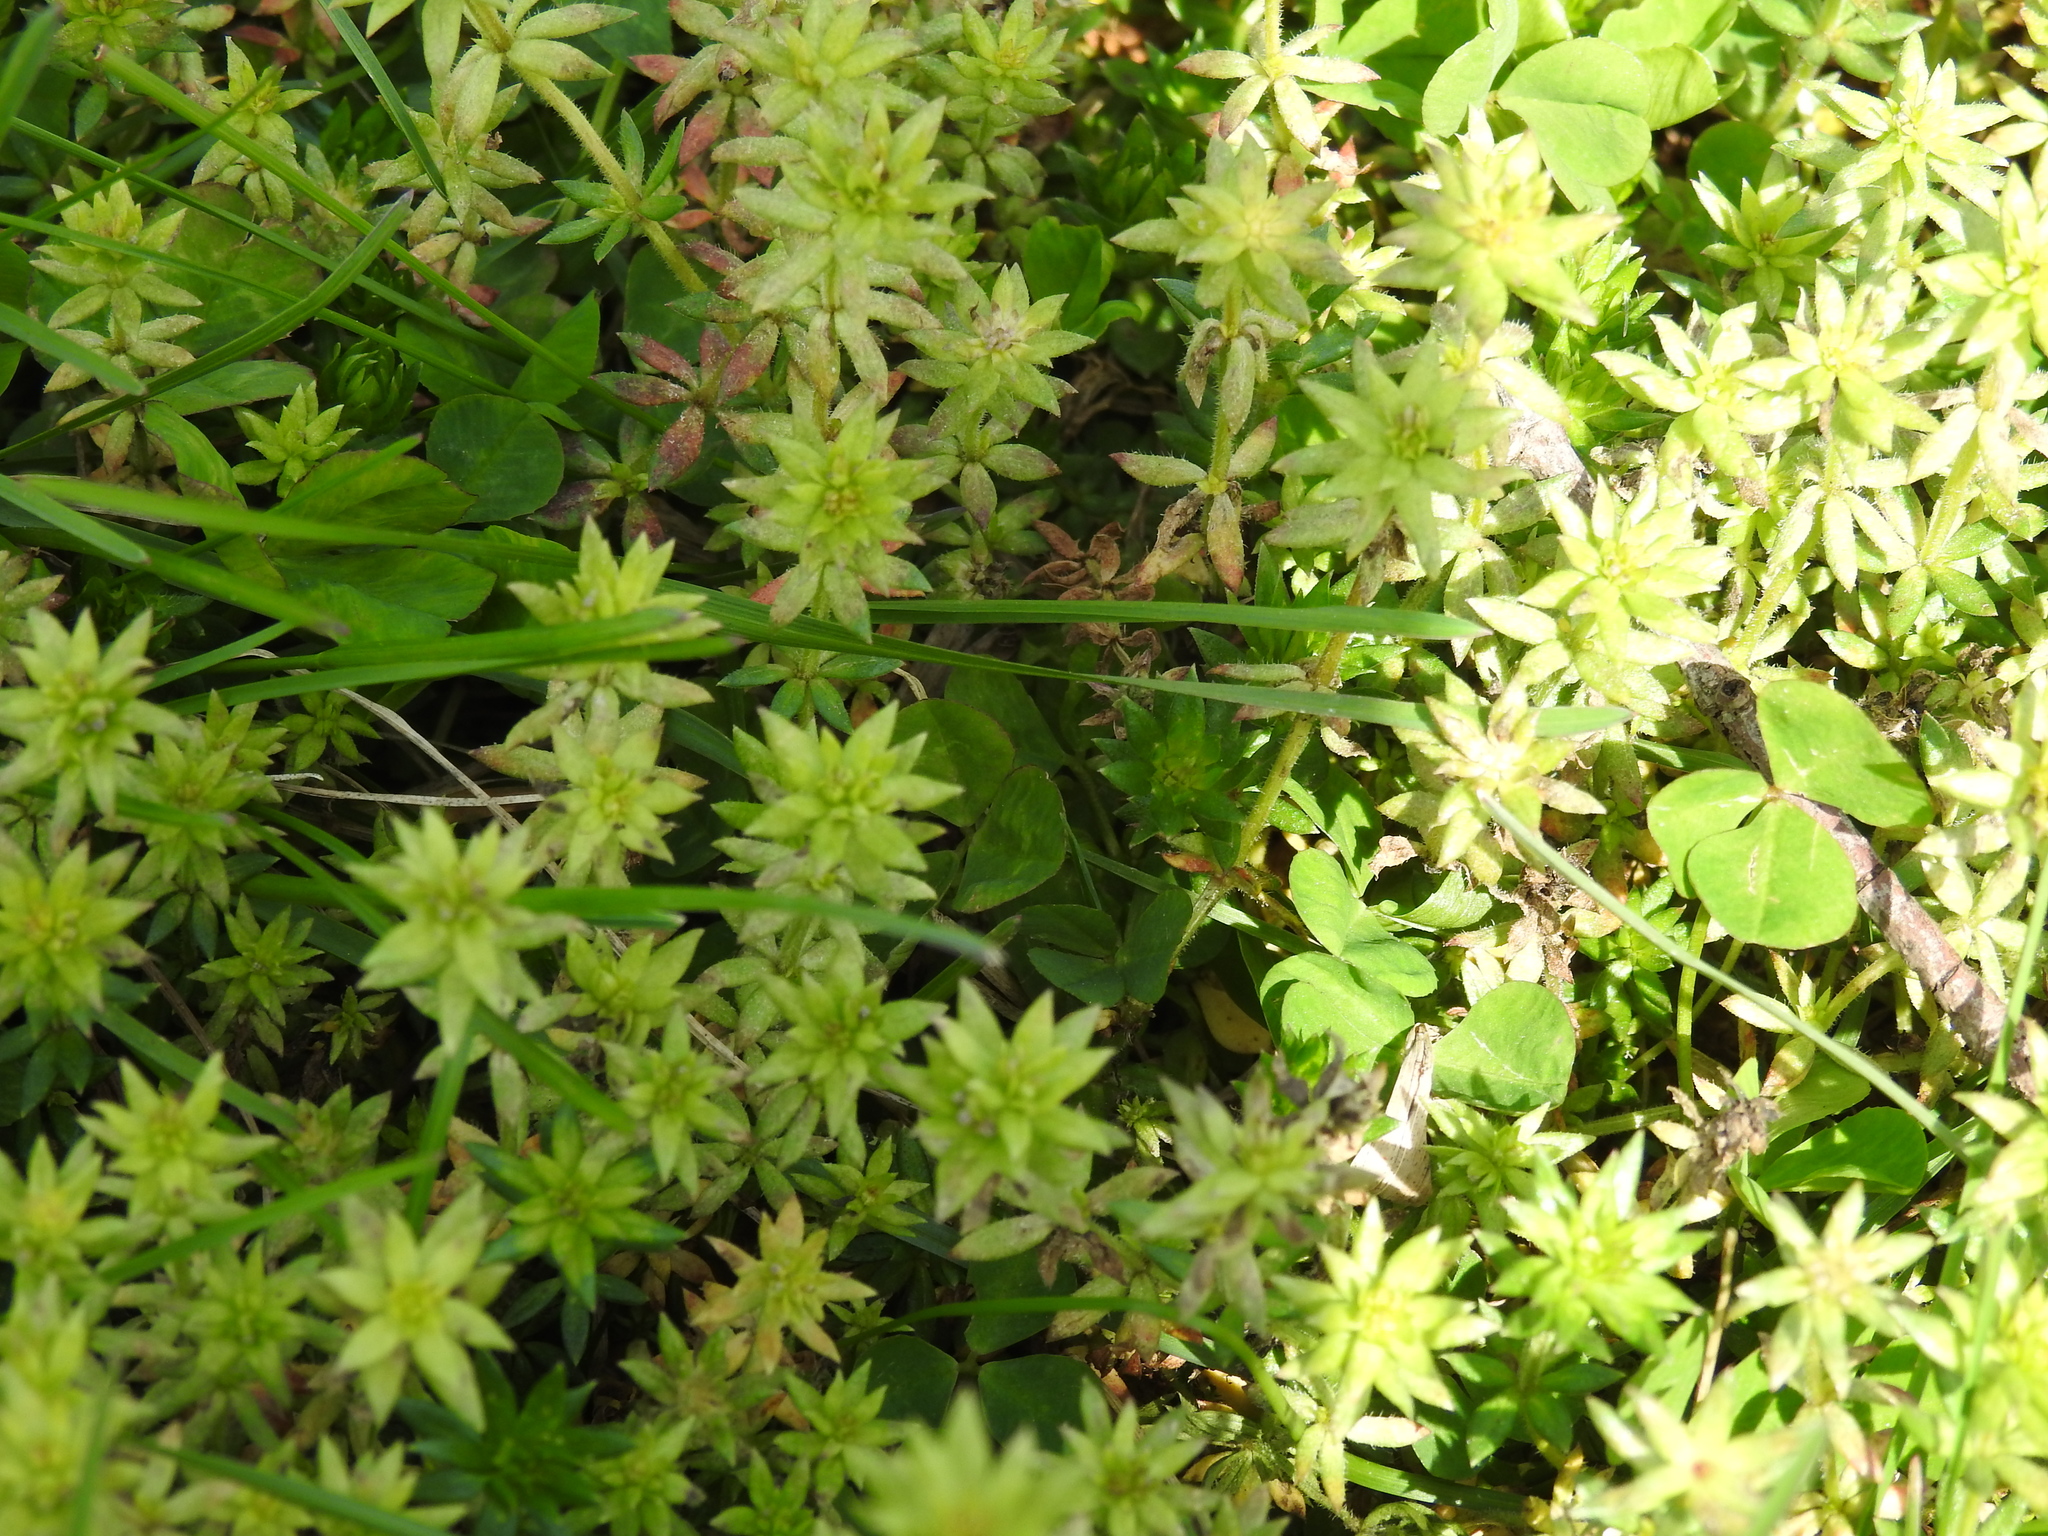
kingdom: Plantae
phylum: Tracheophyta
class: Magnoliopsida
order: Gentianales
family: Rubiaceae
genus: Sherardia
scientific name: Sherardia arvensis
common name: Field madder
